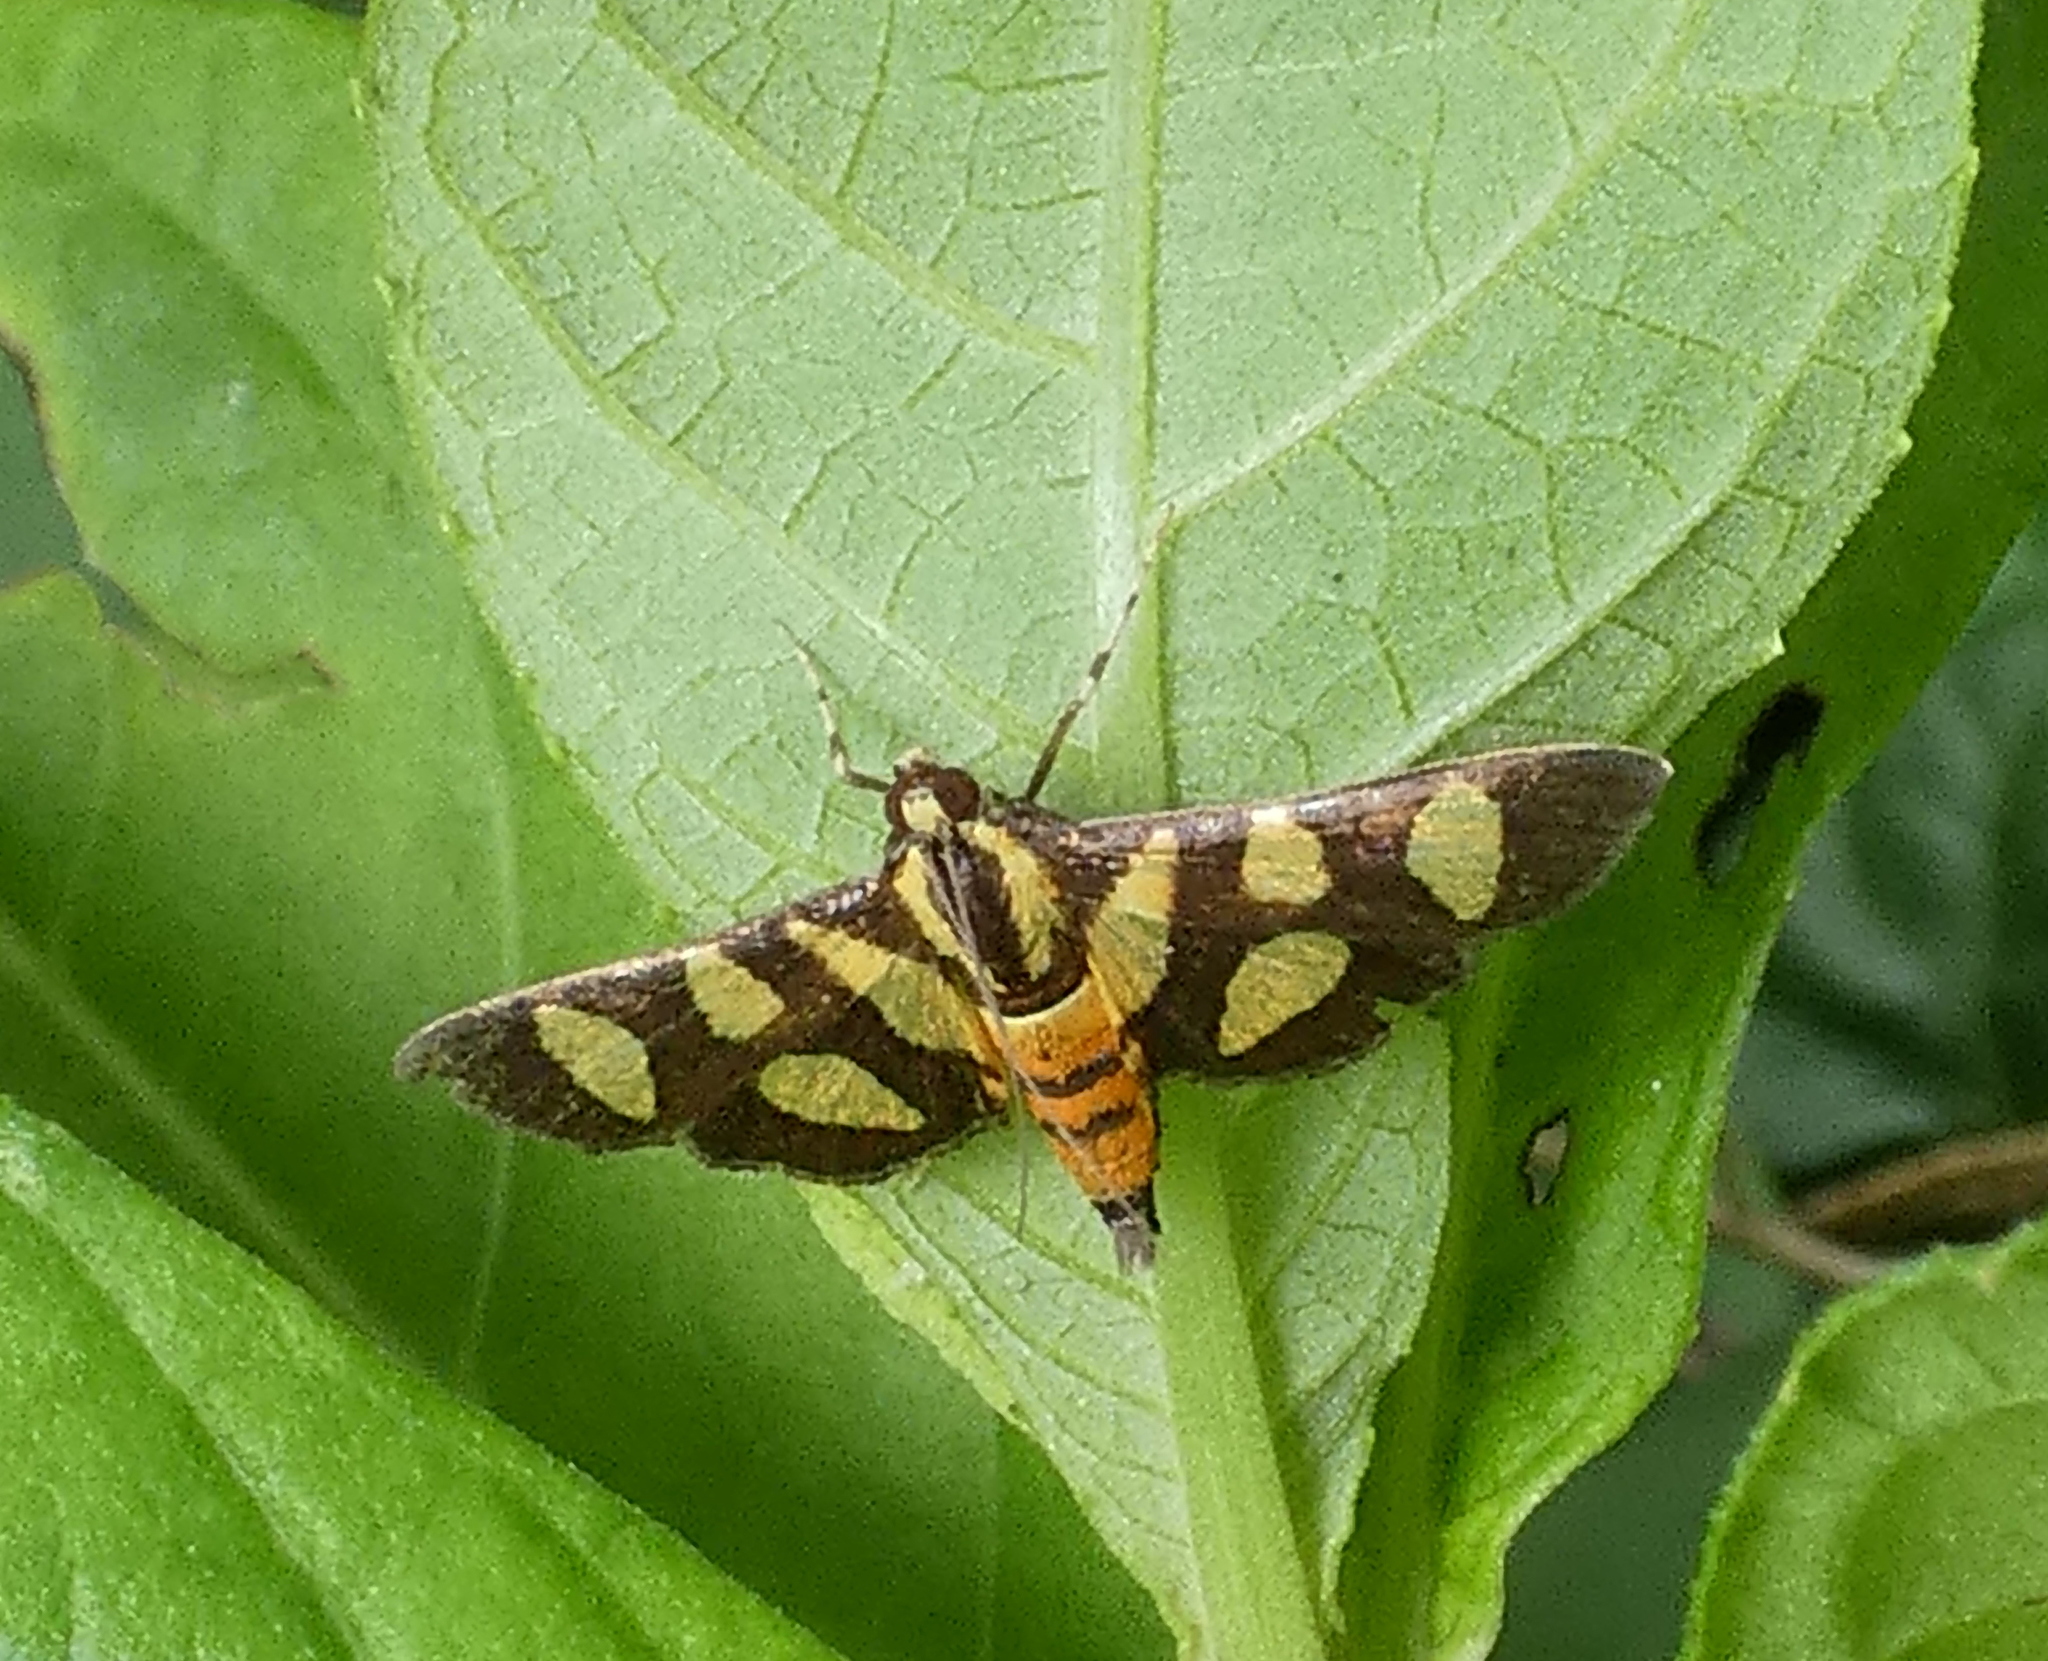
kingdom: Animalia
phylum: Arthropoda
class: Insecta
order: Lepidoptera
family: Crambidae
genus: Syngamia
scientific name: Syngamia florella
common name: Orange-spotted flower moth
